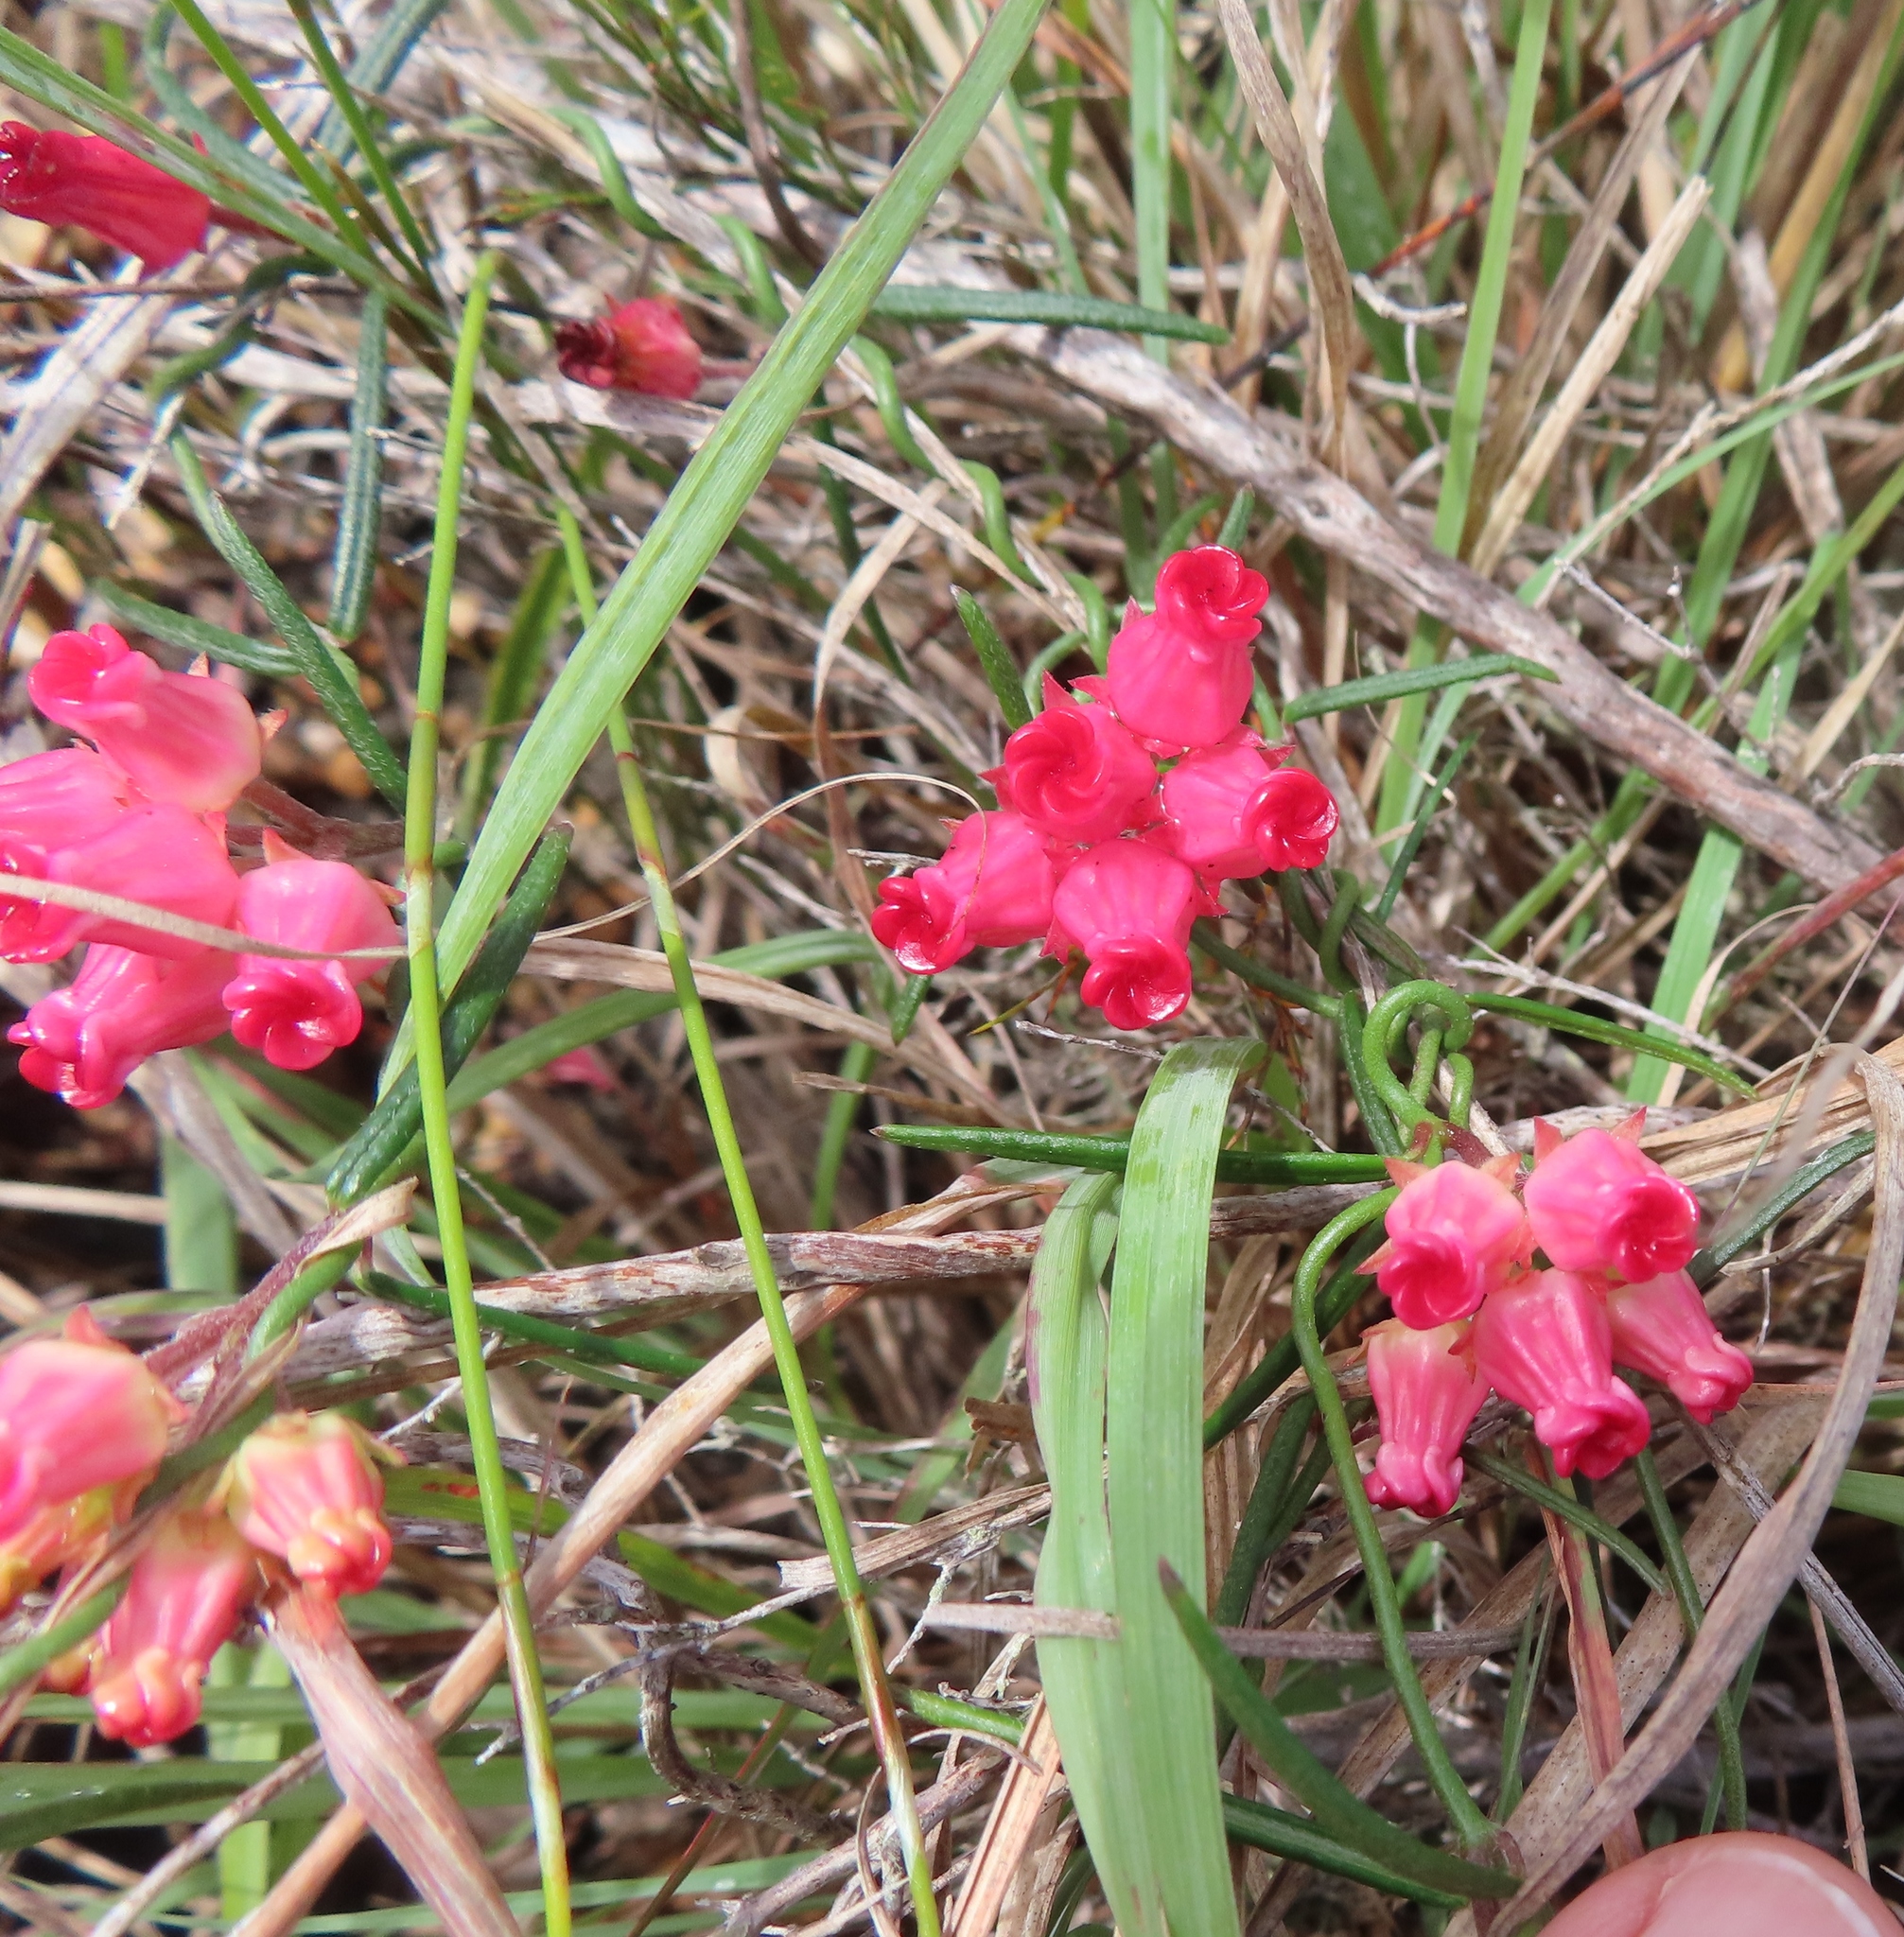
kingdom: Plantae
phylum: Tracheophyta
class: Magnoliopsida
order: Gentianales
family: Apocynaceae
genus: Microloma
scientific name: Microloma tenuifolium
